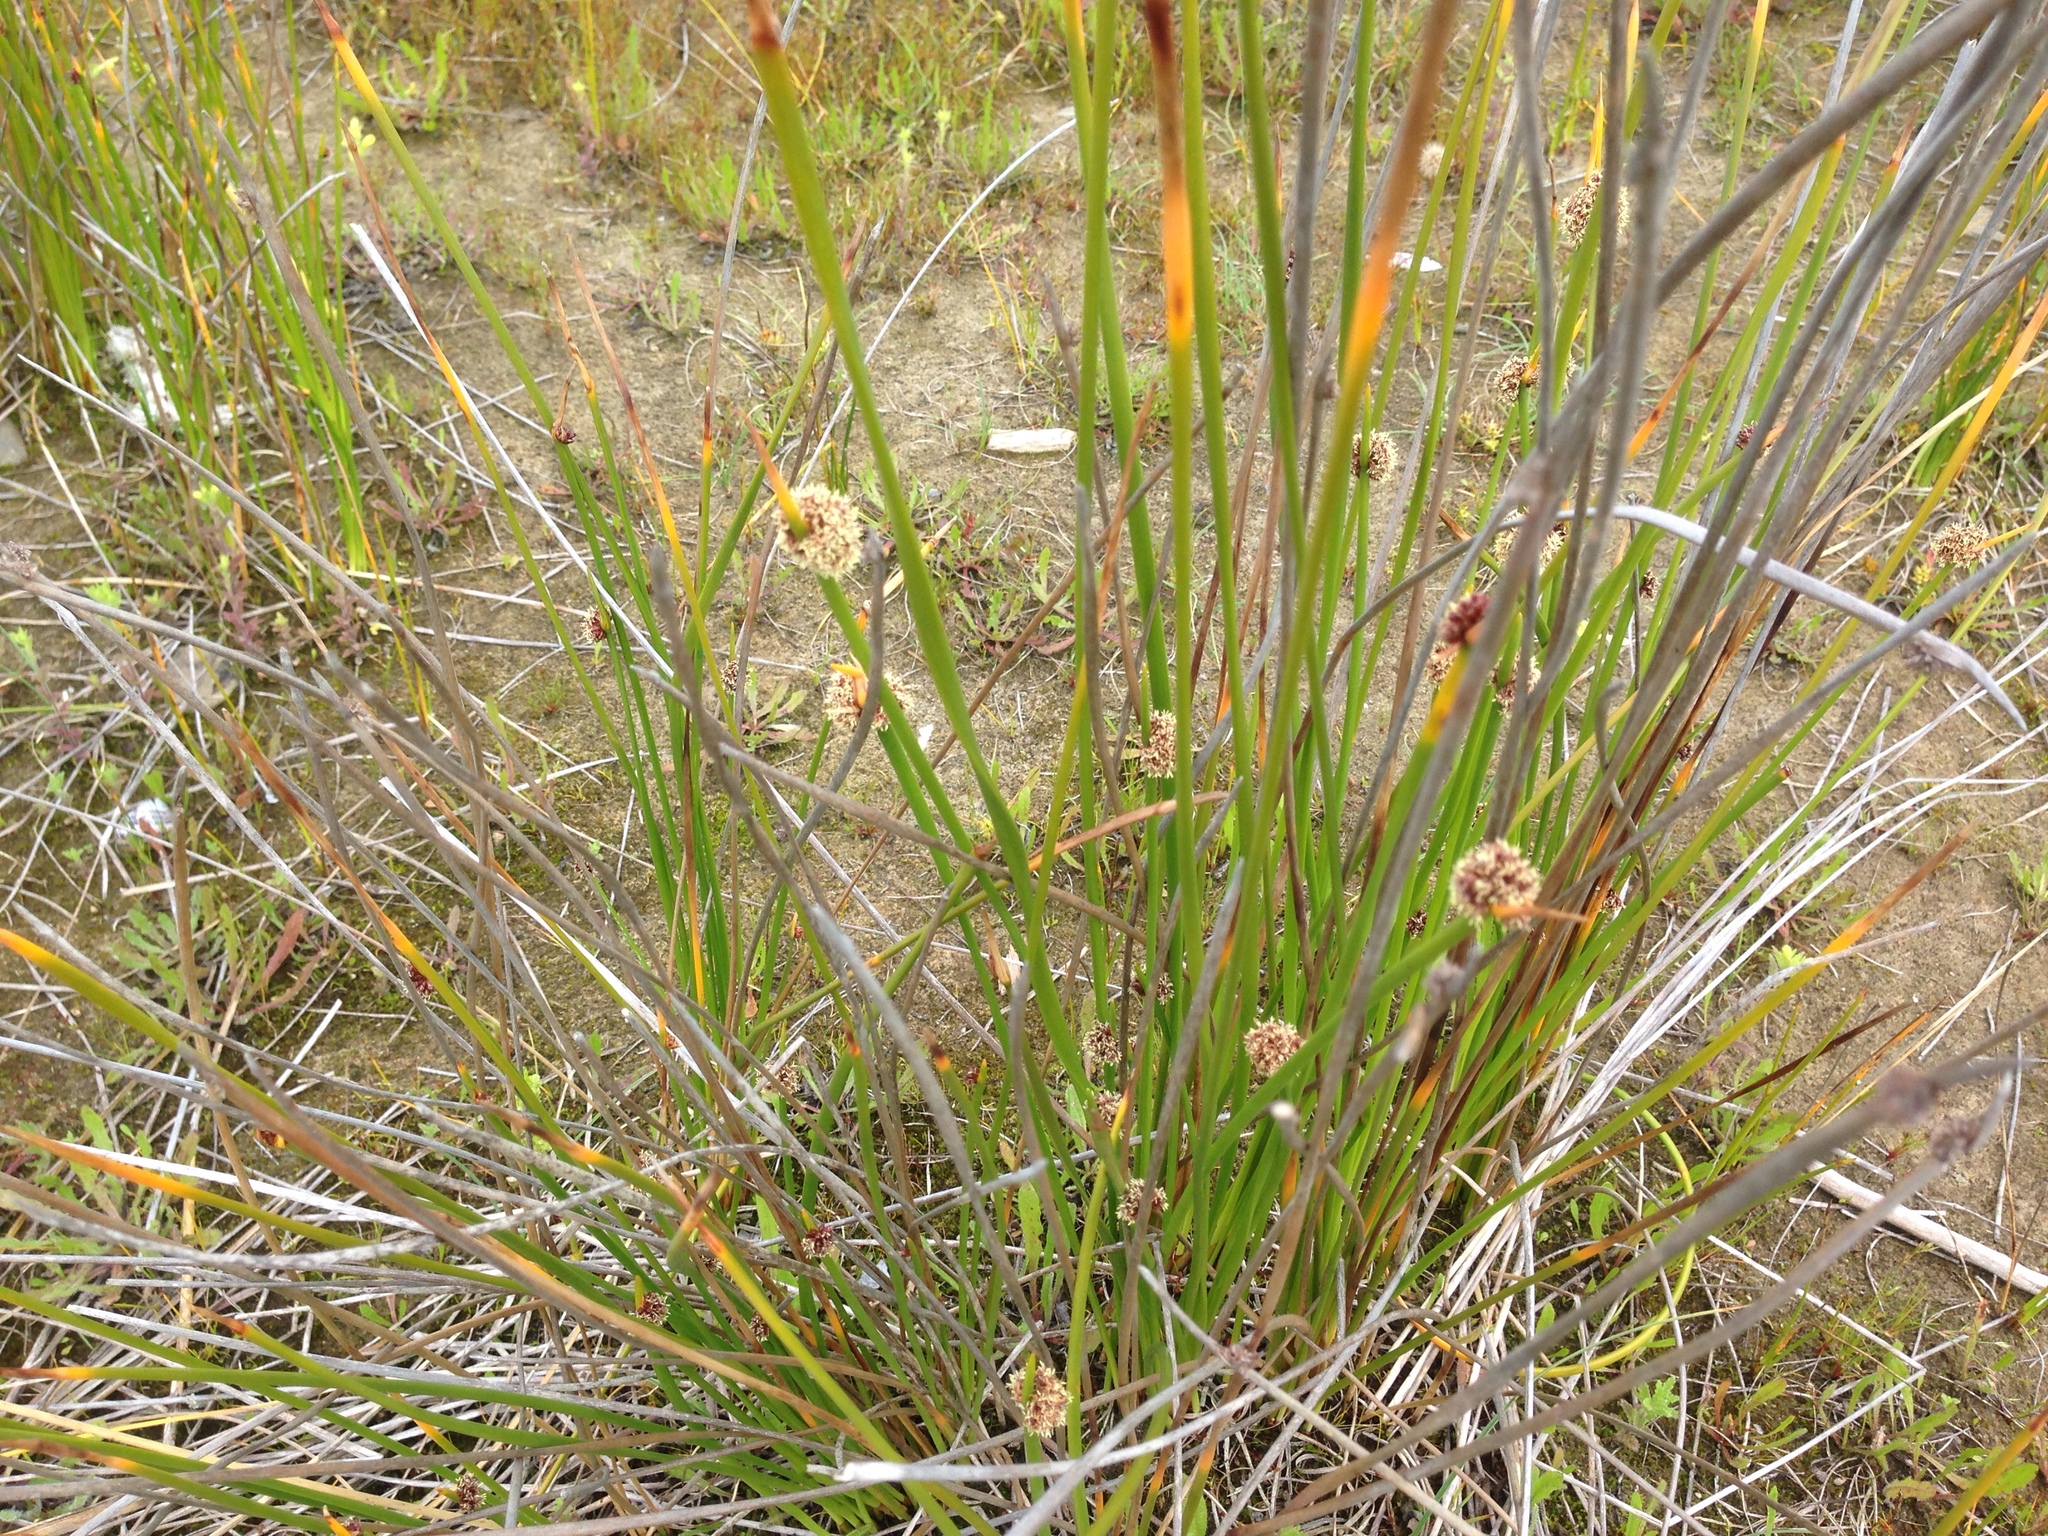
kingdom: Plantae
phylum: Tracheophyta
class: Liliopsida
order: Poales
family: Cyperaceae
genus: Ficinia
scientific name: Ficinia nodosa
